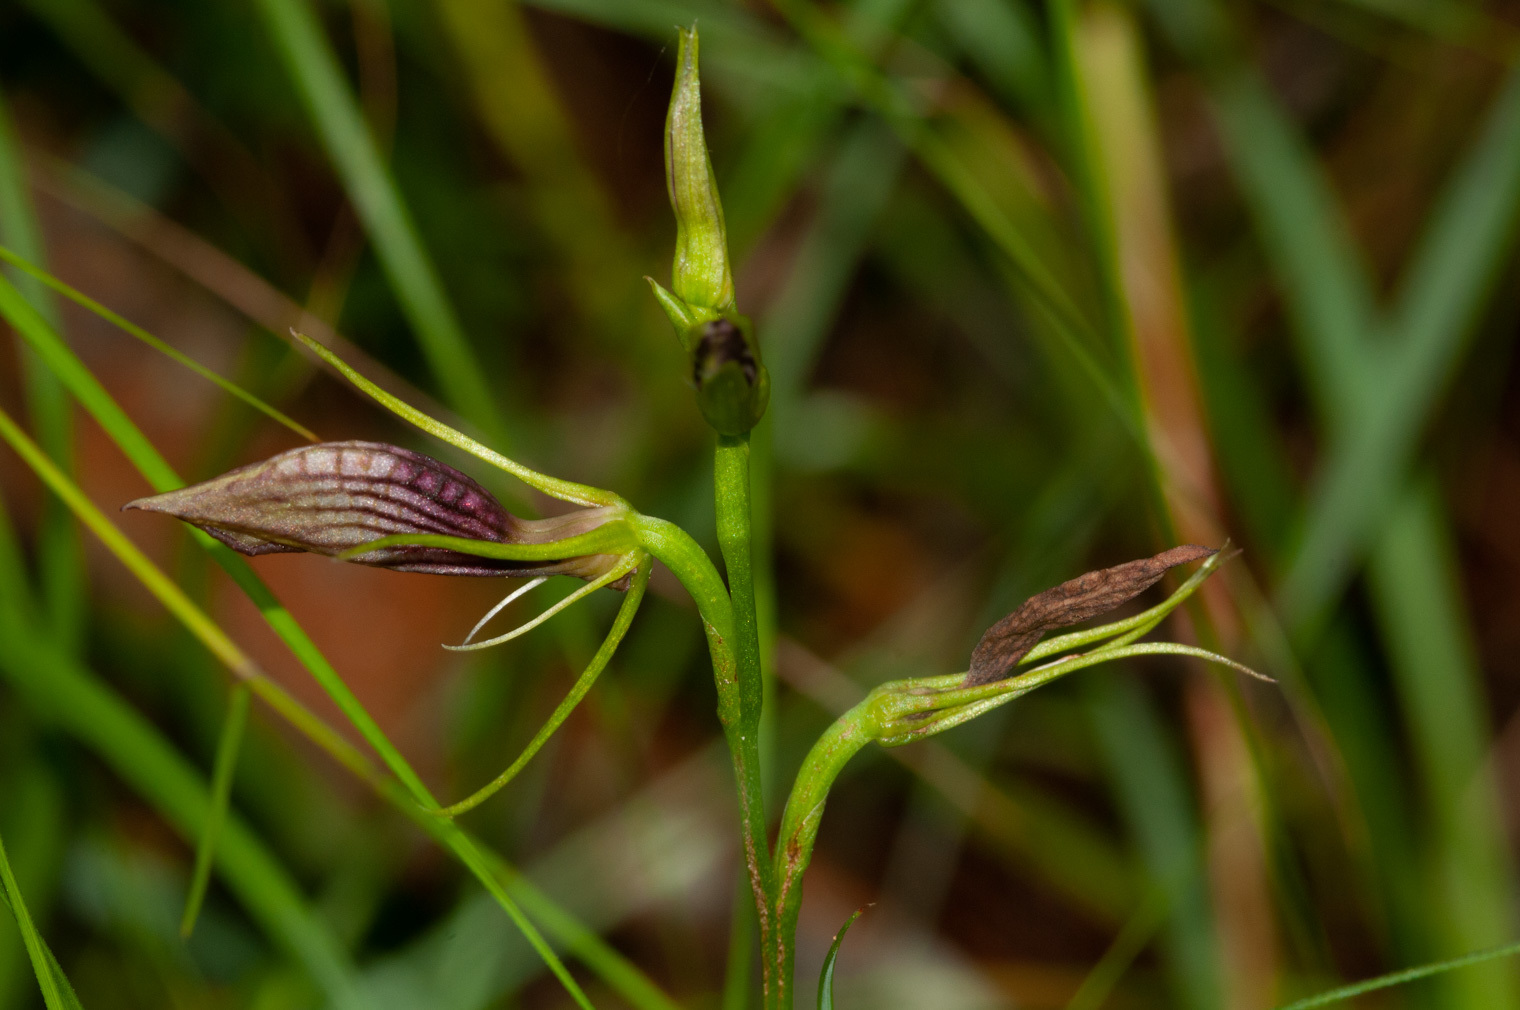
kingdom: Plantae
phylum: Tracheophyta
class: Liliopsida
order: Asparagales
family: Orchidaceae
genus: Cryptostylis
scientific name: Cryptostylis erecta
